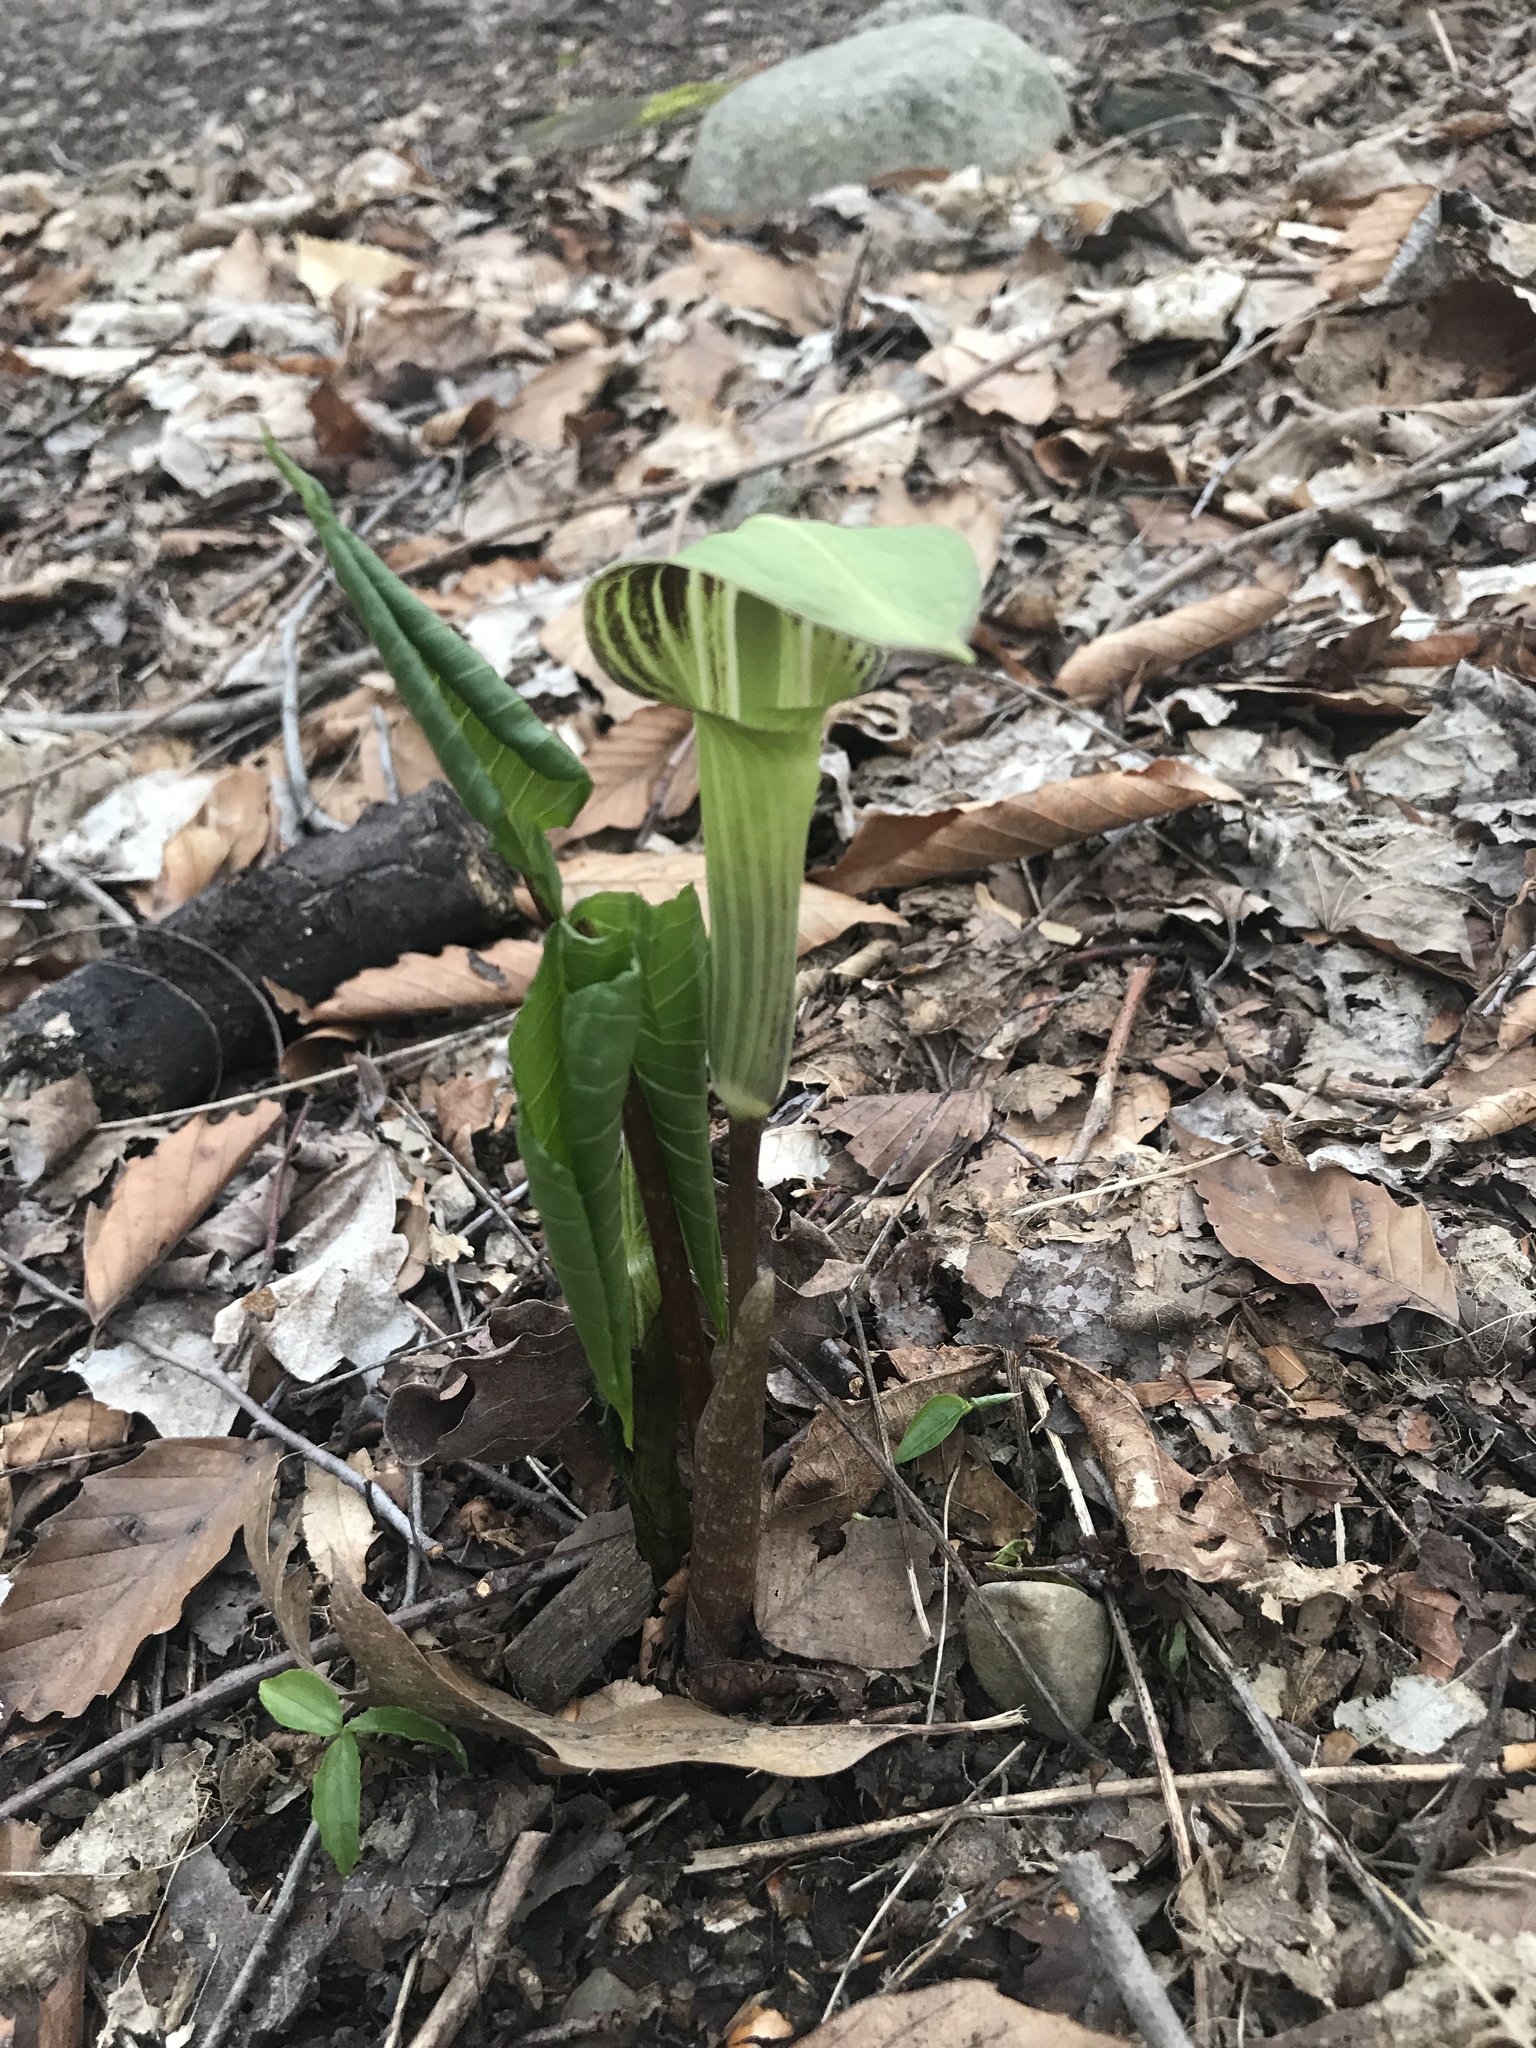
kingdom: Plantae
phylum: Tracheophyta
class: Liliopsida
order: Alismatales
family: Araceae
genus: Arisaema
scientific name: Arisaema triphyllum
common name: Jack-in-the-pulpit
